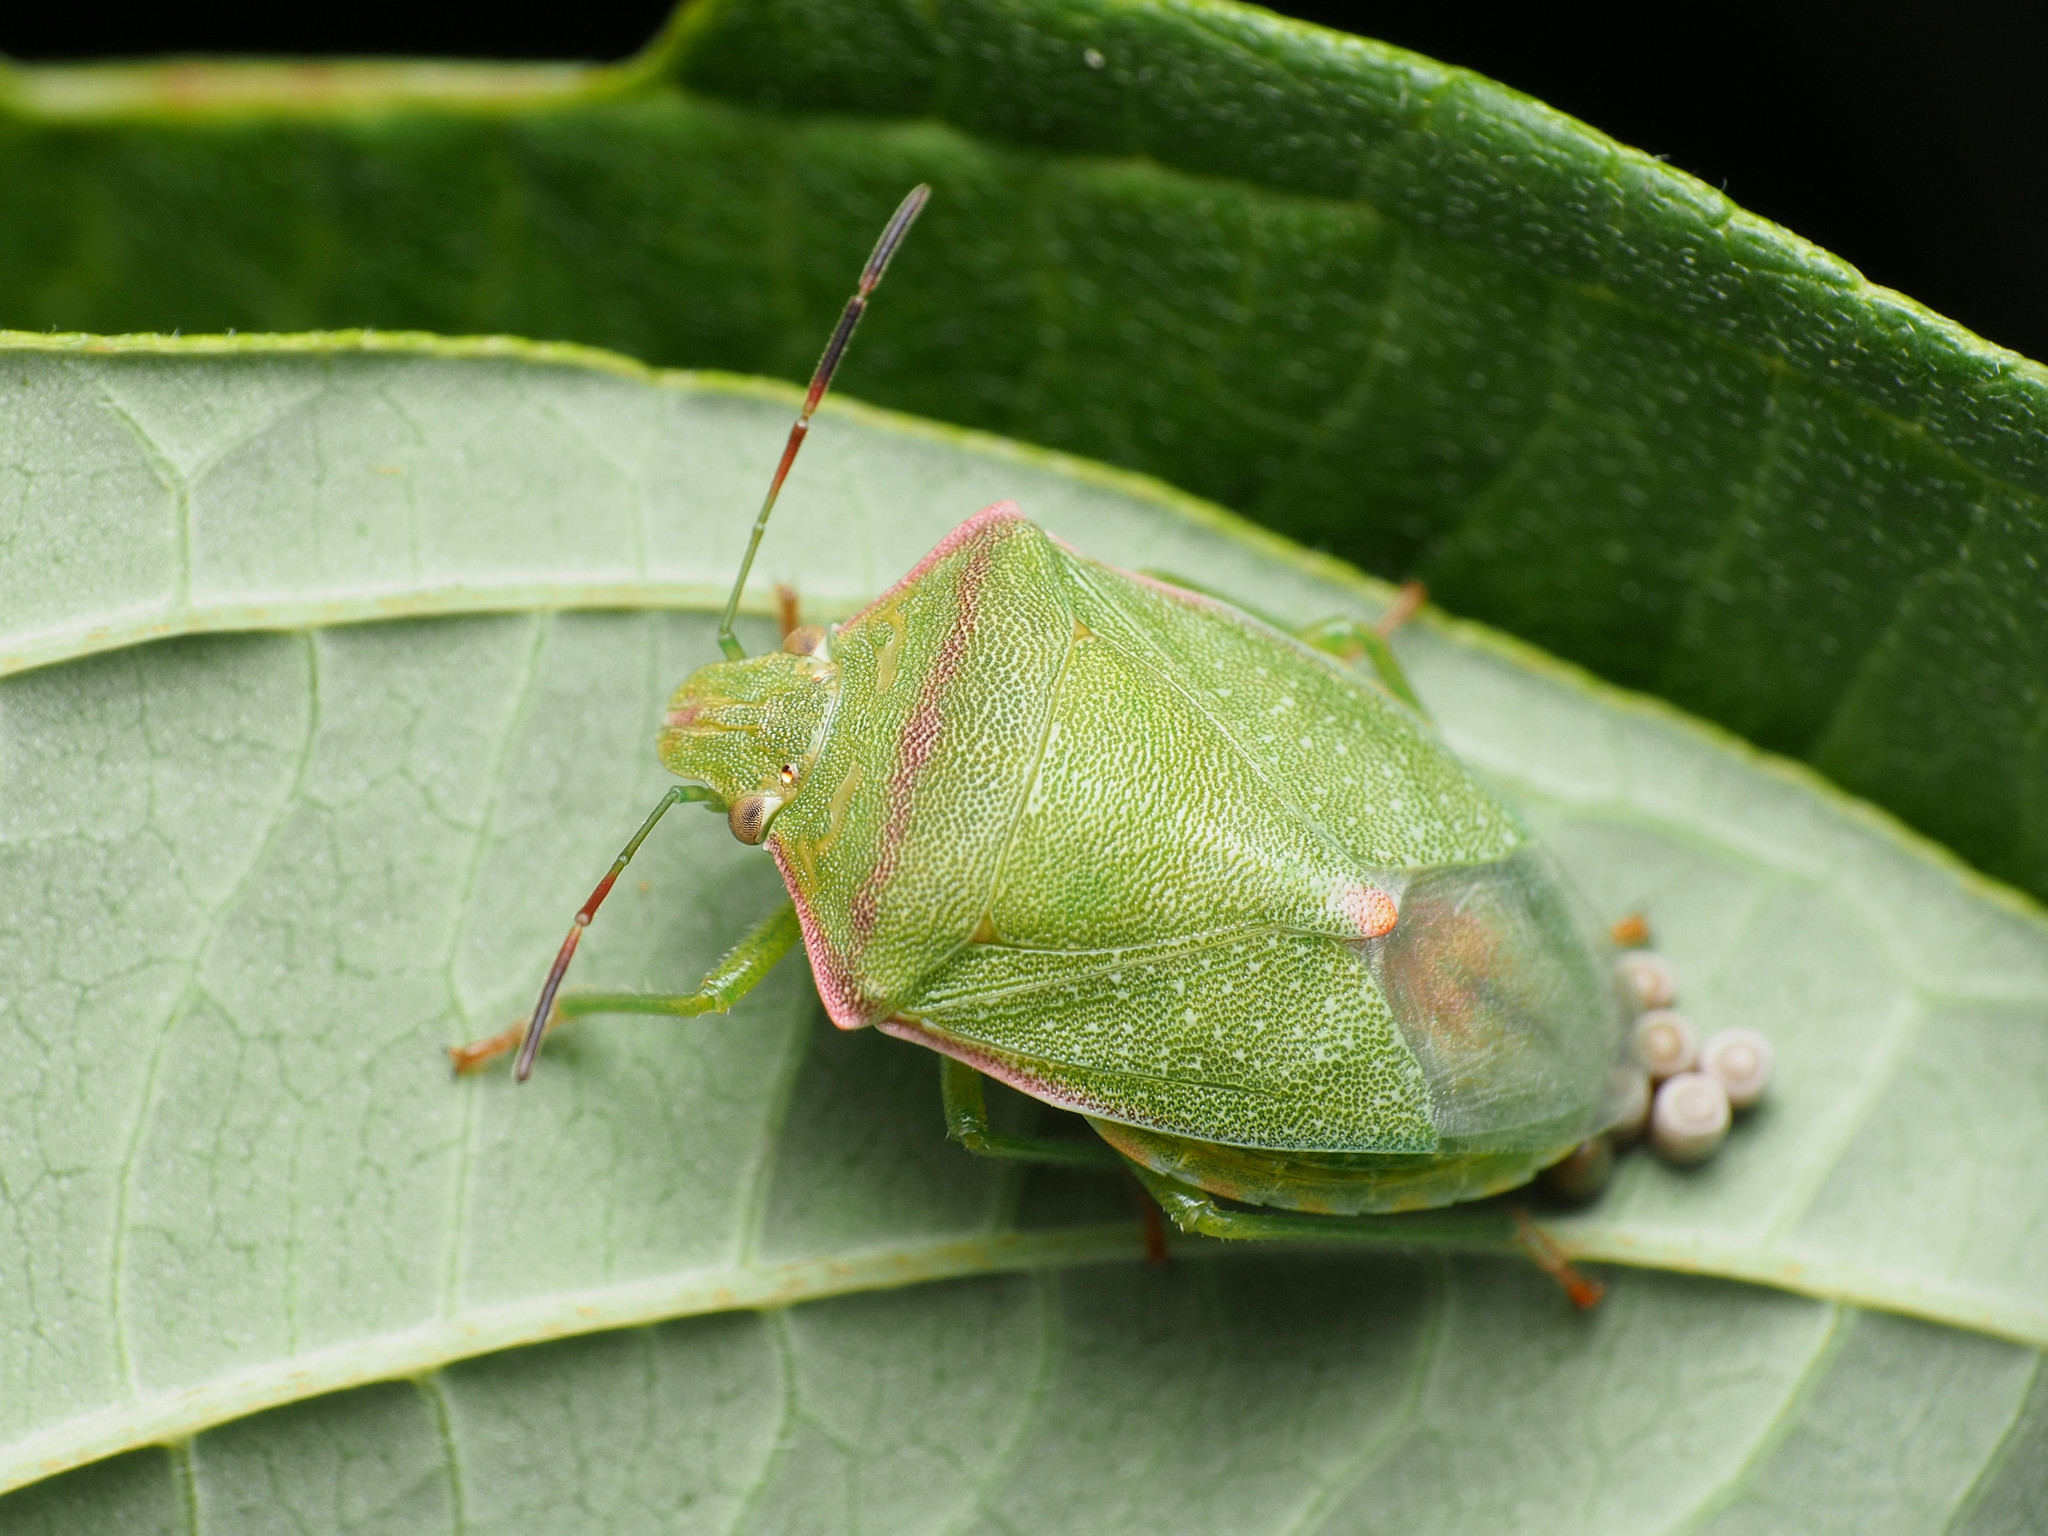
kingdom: Animalia
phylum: Arthropoda
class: Insecta
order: Hemiptera
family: Pentatomidae
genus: Thyanta
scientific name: Thyanta custator
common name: Stink bug
